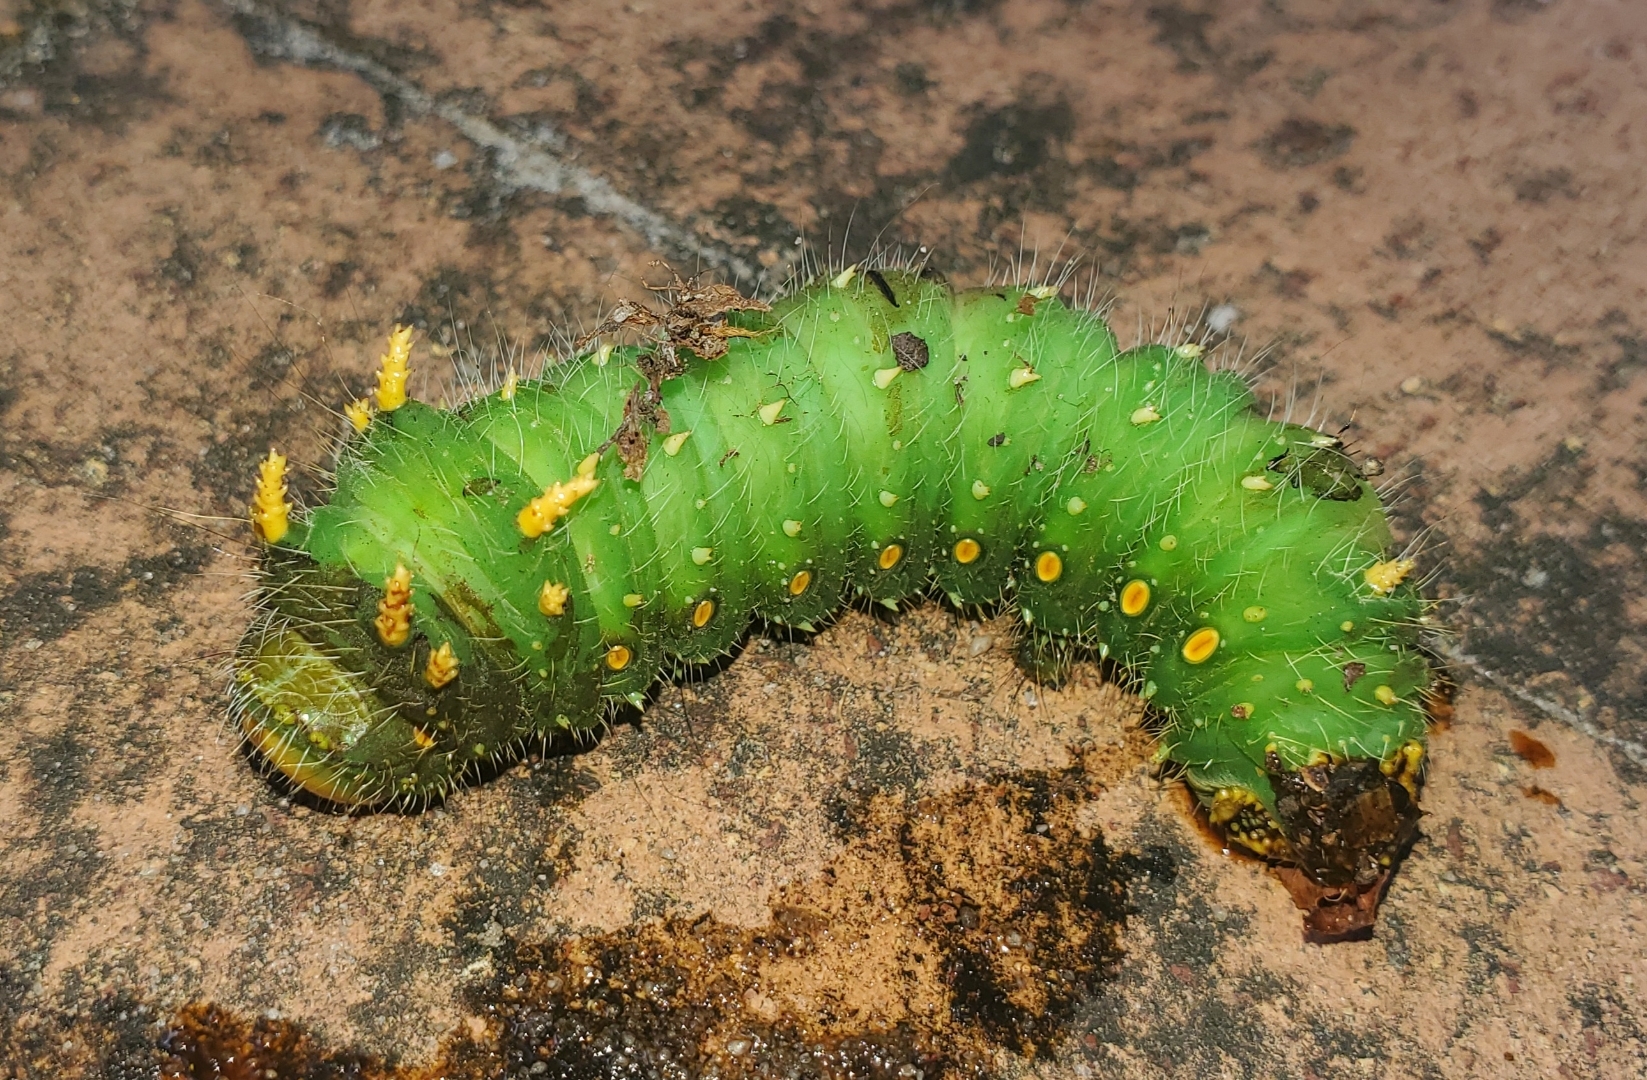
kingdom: Animalia
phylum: Arthropoda
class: Insecta
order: Lepidoptera
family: Saturniidae
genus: Eacles
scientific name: Eacles imperialis
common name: Imperial moth
